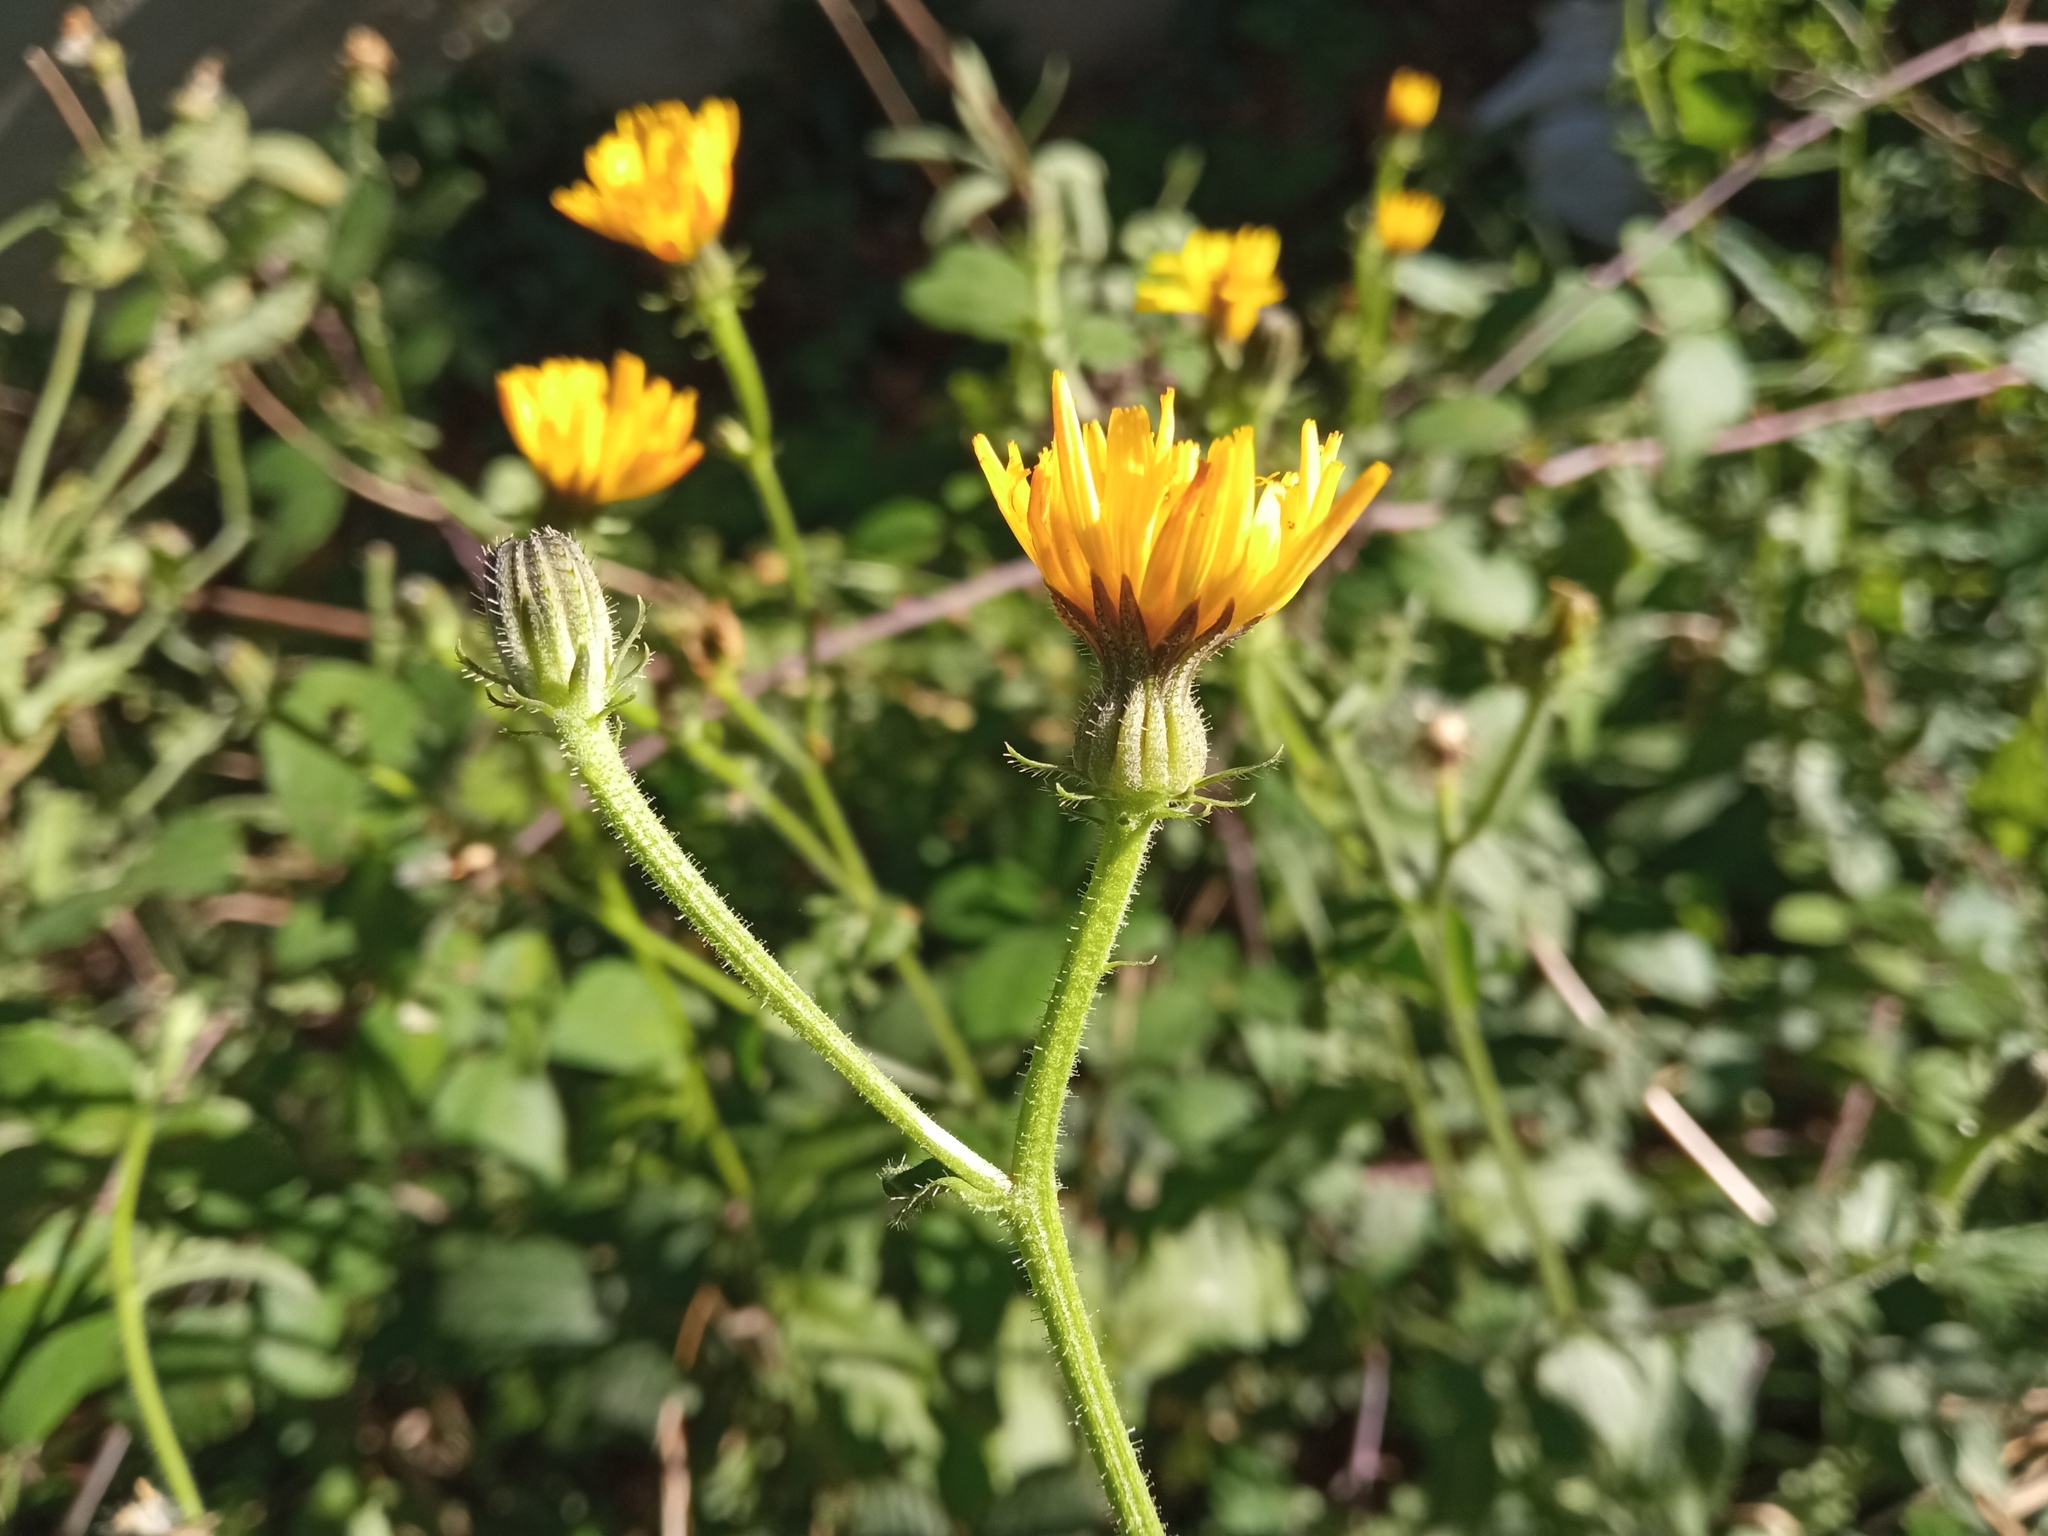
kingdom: Plantae
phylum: Tracheophyta
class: Magnoliopsida
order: Asterales
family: Asteraceae
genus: Picris
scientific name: Picris hieracioides
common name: Hawkweed oxtongue
